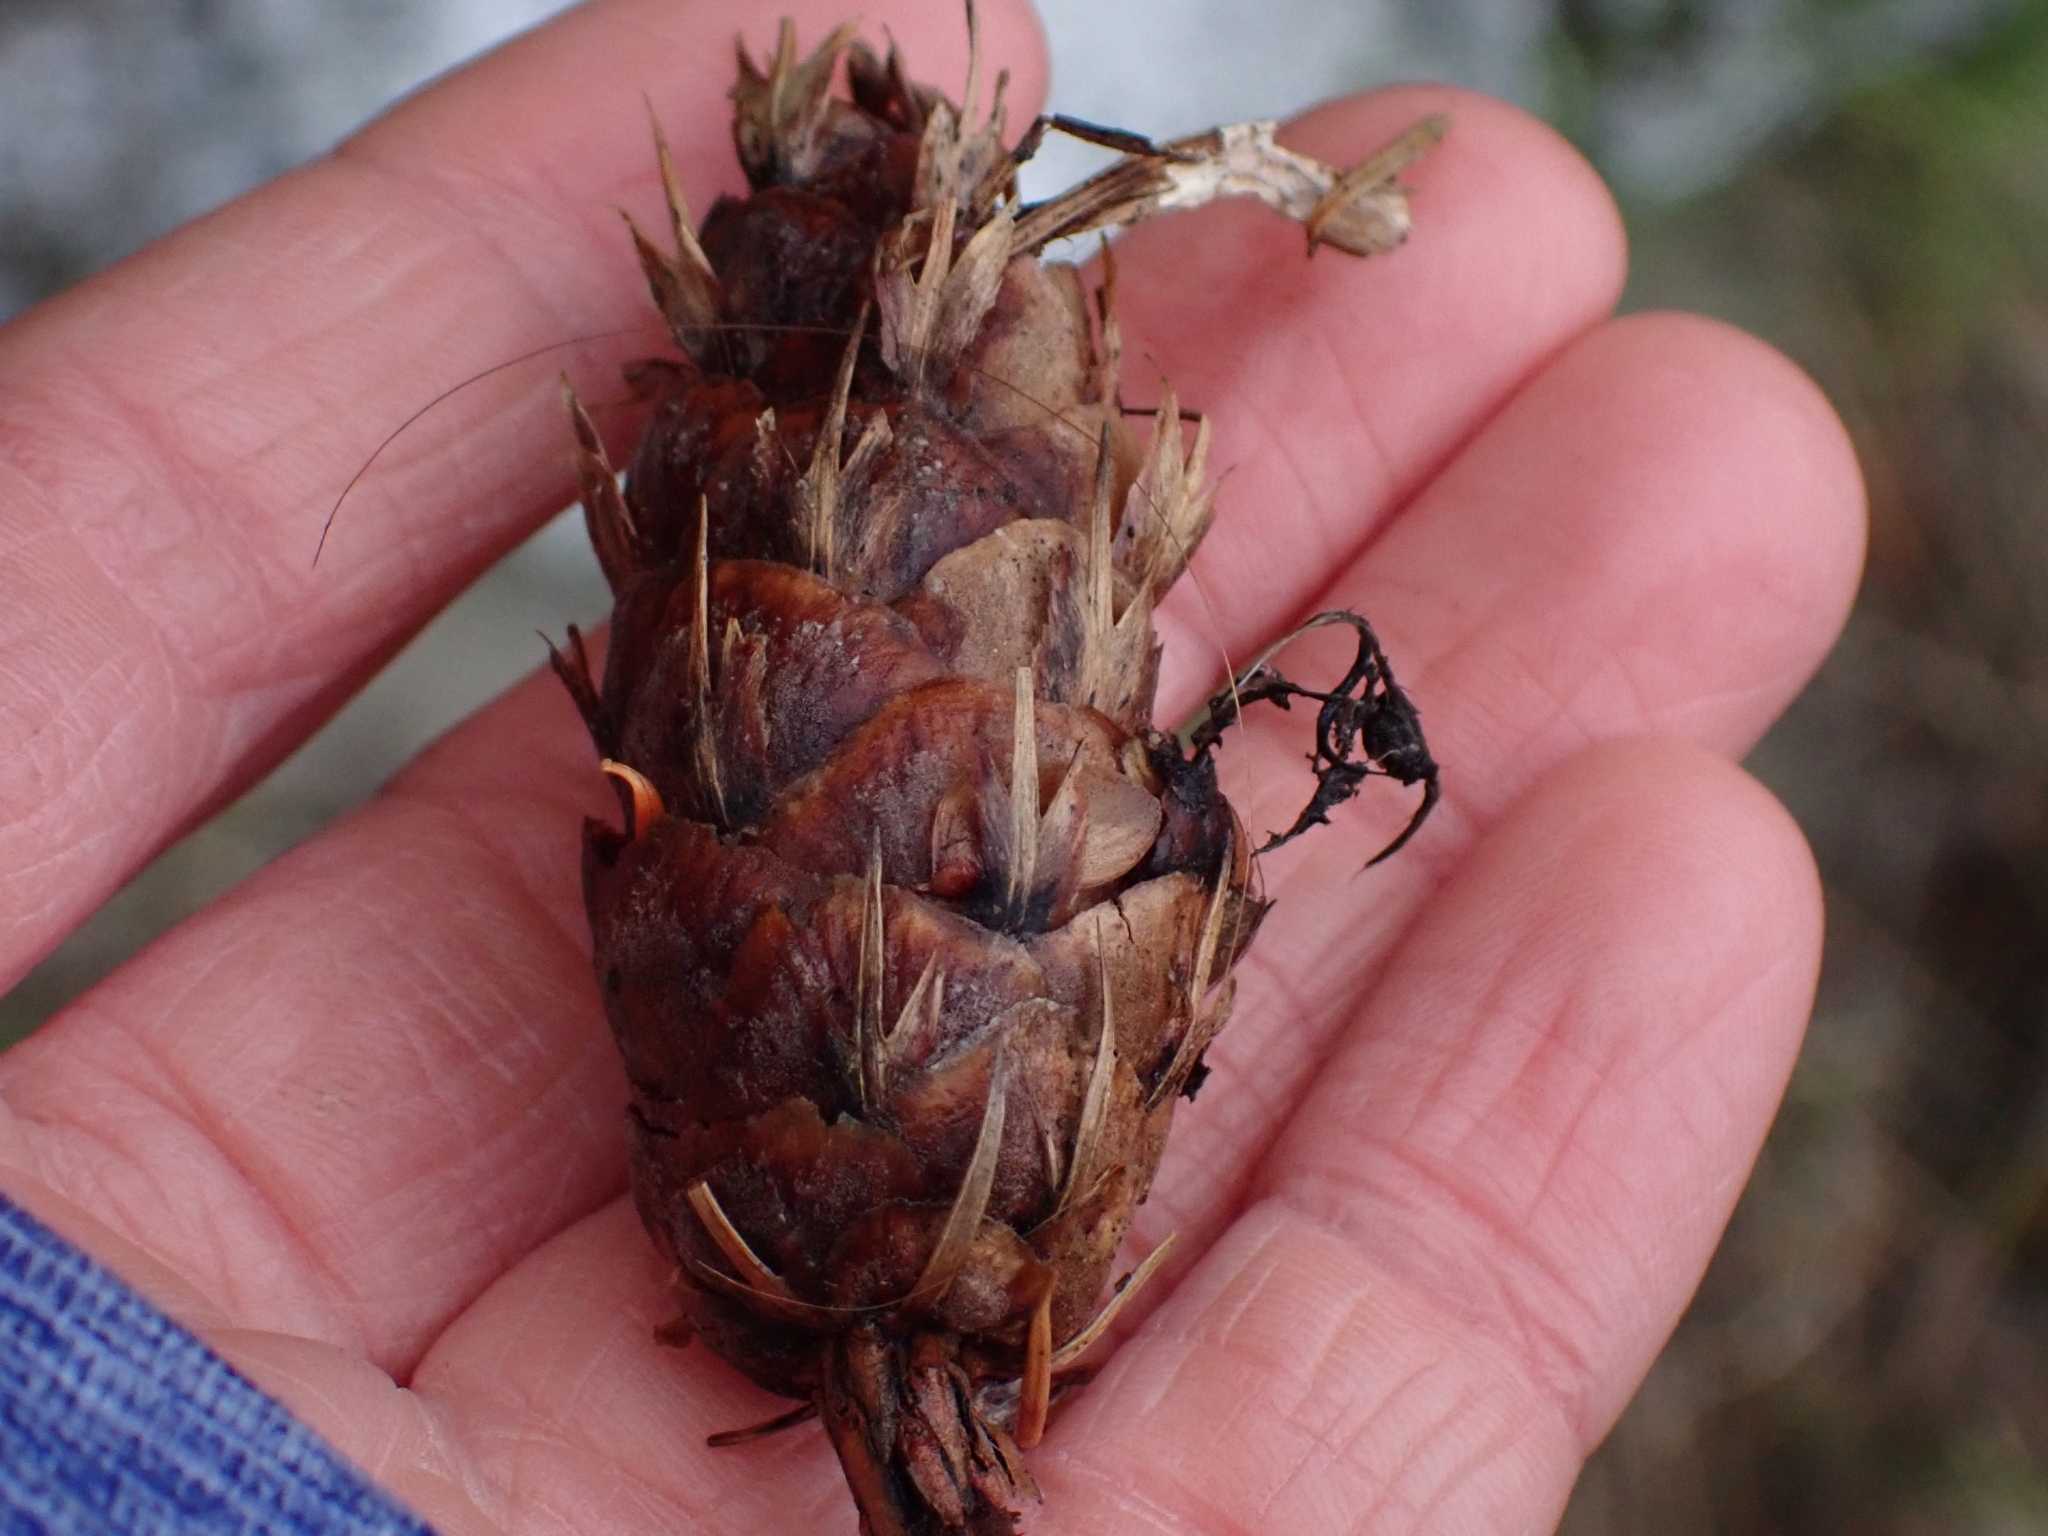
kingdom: Plantae
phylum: Tracheophyta
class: Pinopsida
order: Pinales
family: Pinaceae
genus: Pseudotsuga
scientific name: Pseudotsuga menziesii
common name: Douglas fir
